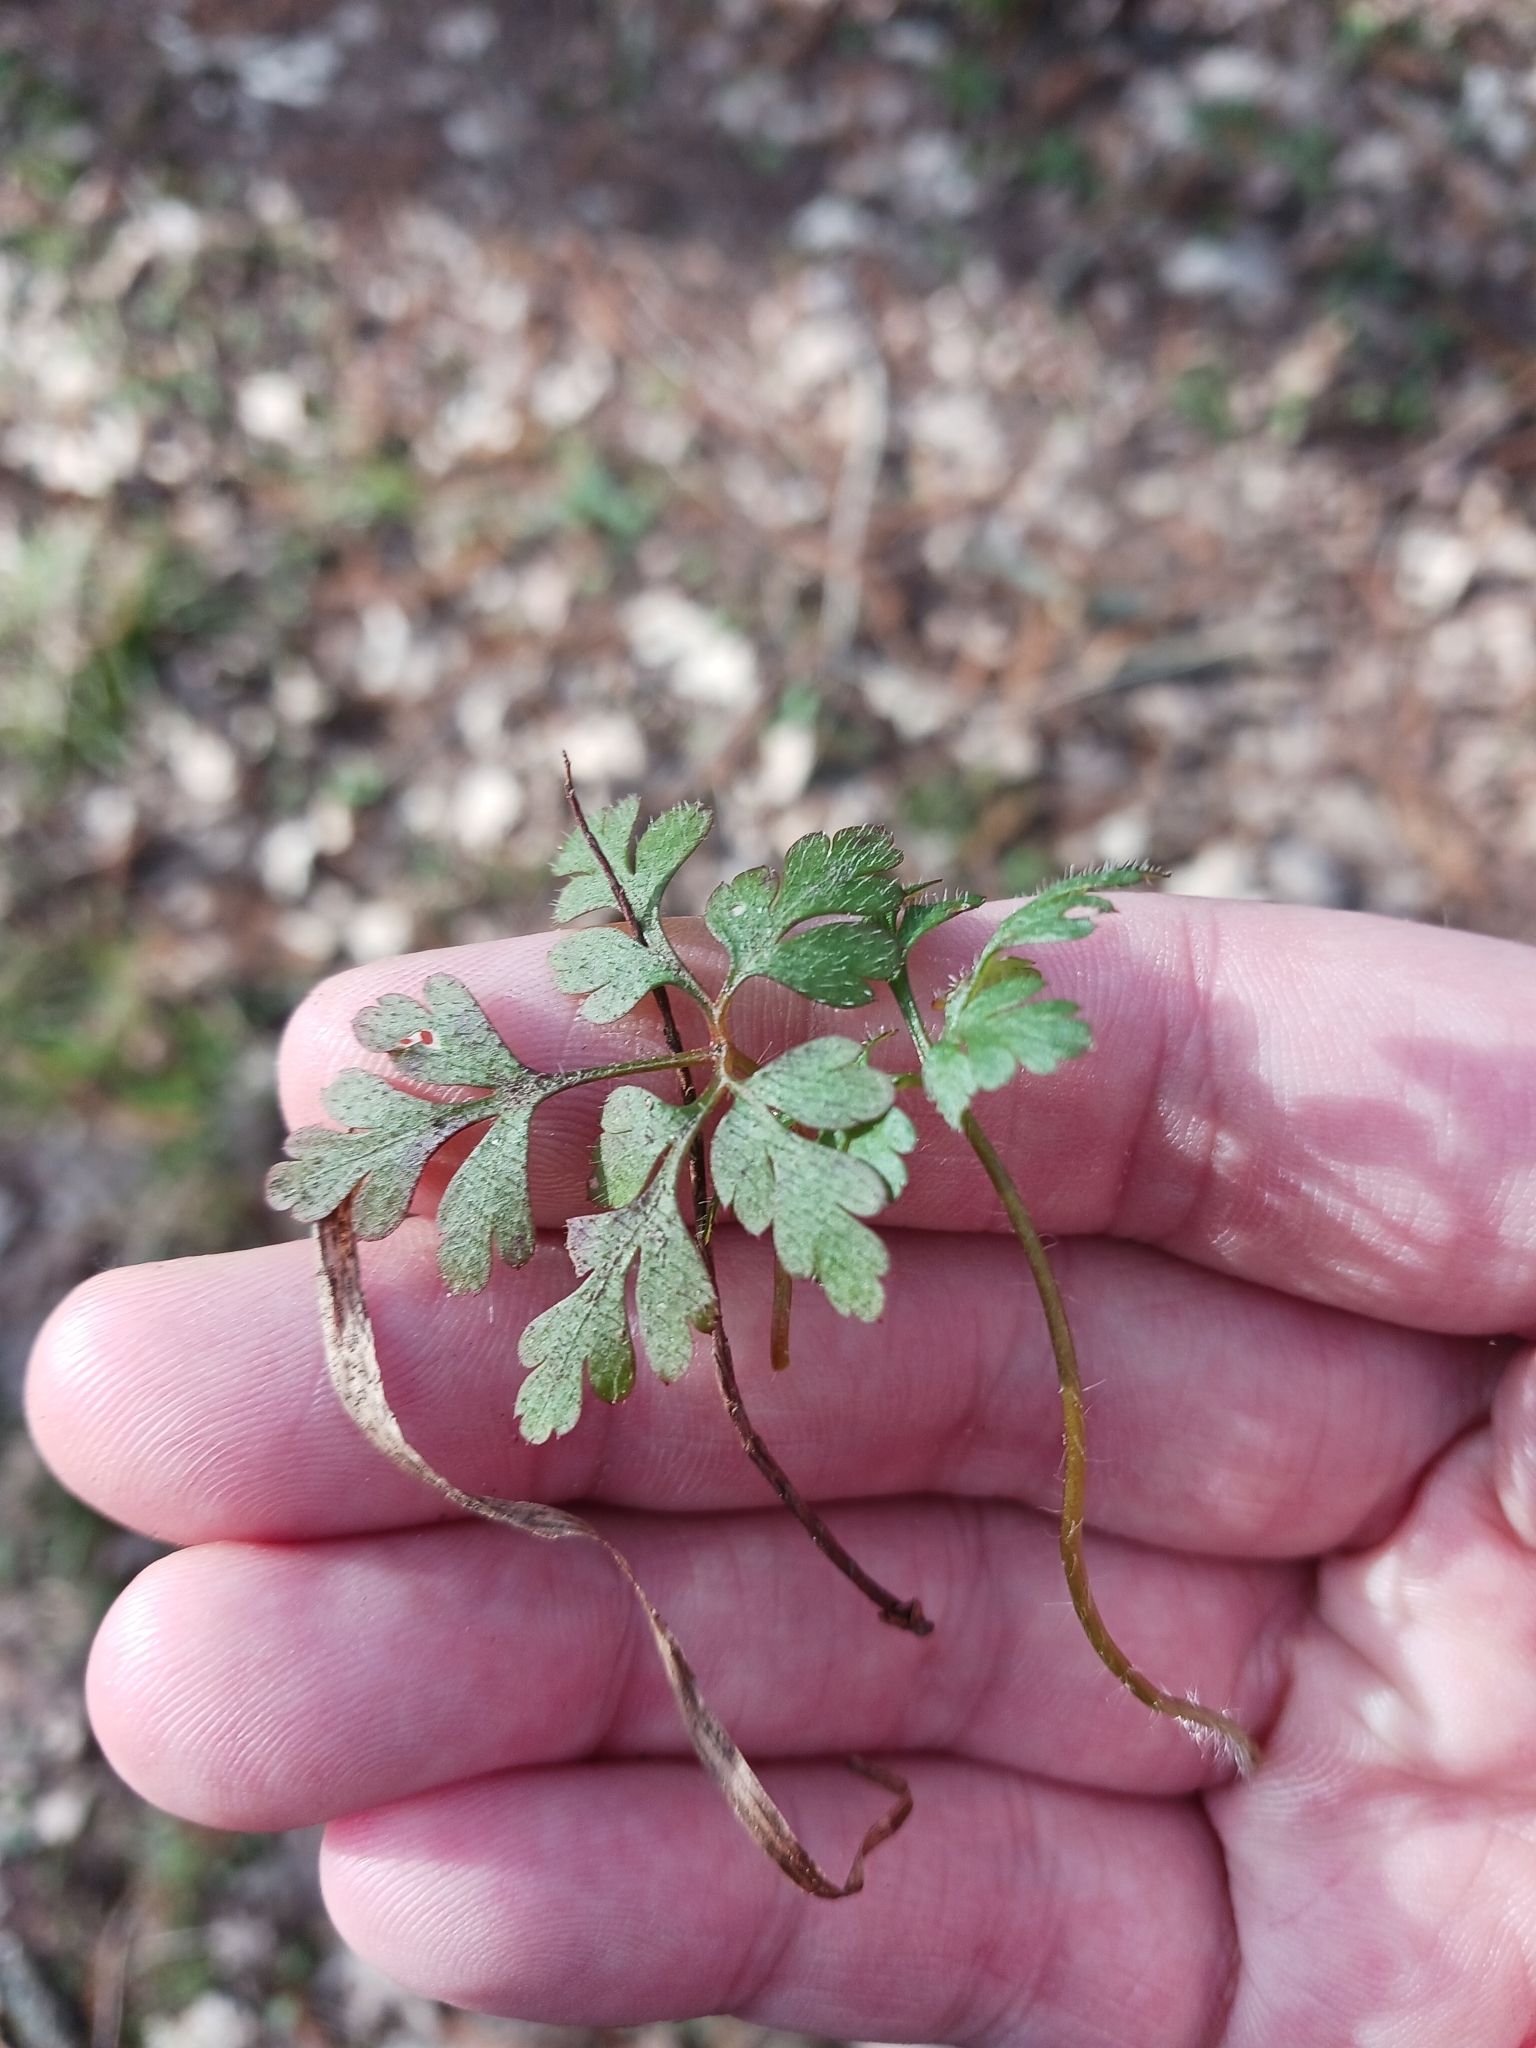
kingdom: Plantae
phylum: Tracheophyta
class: Magnoliopsida
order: Geraniales
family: Geraniaceae
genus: Geranium
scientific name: Geranium robertianum
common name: Herb-robert
